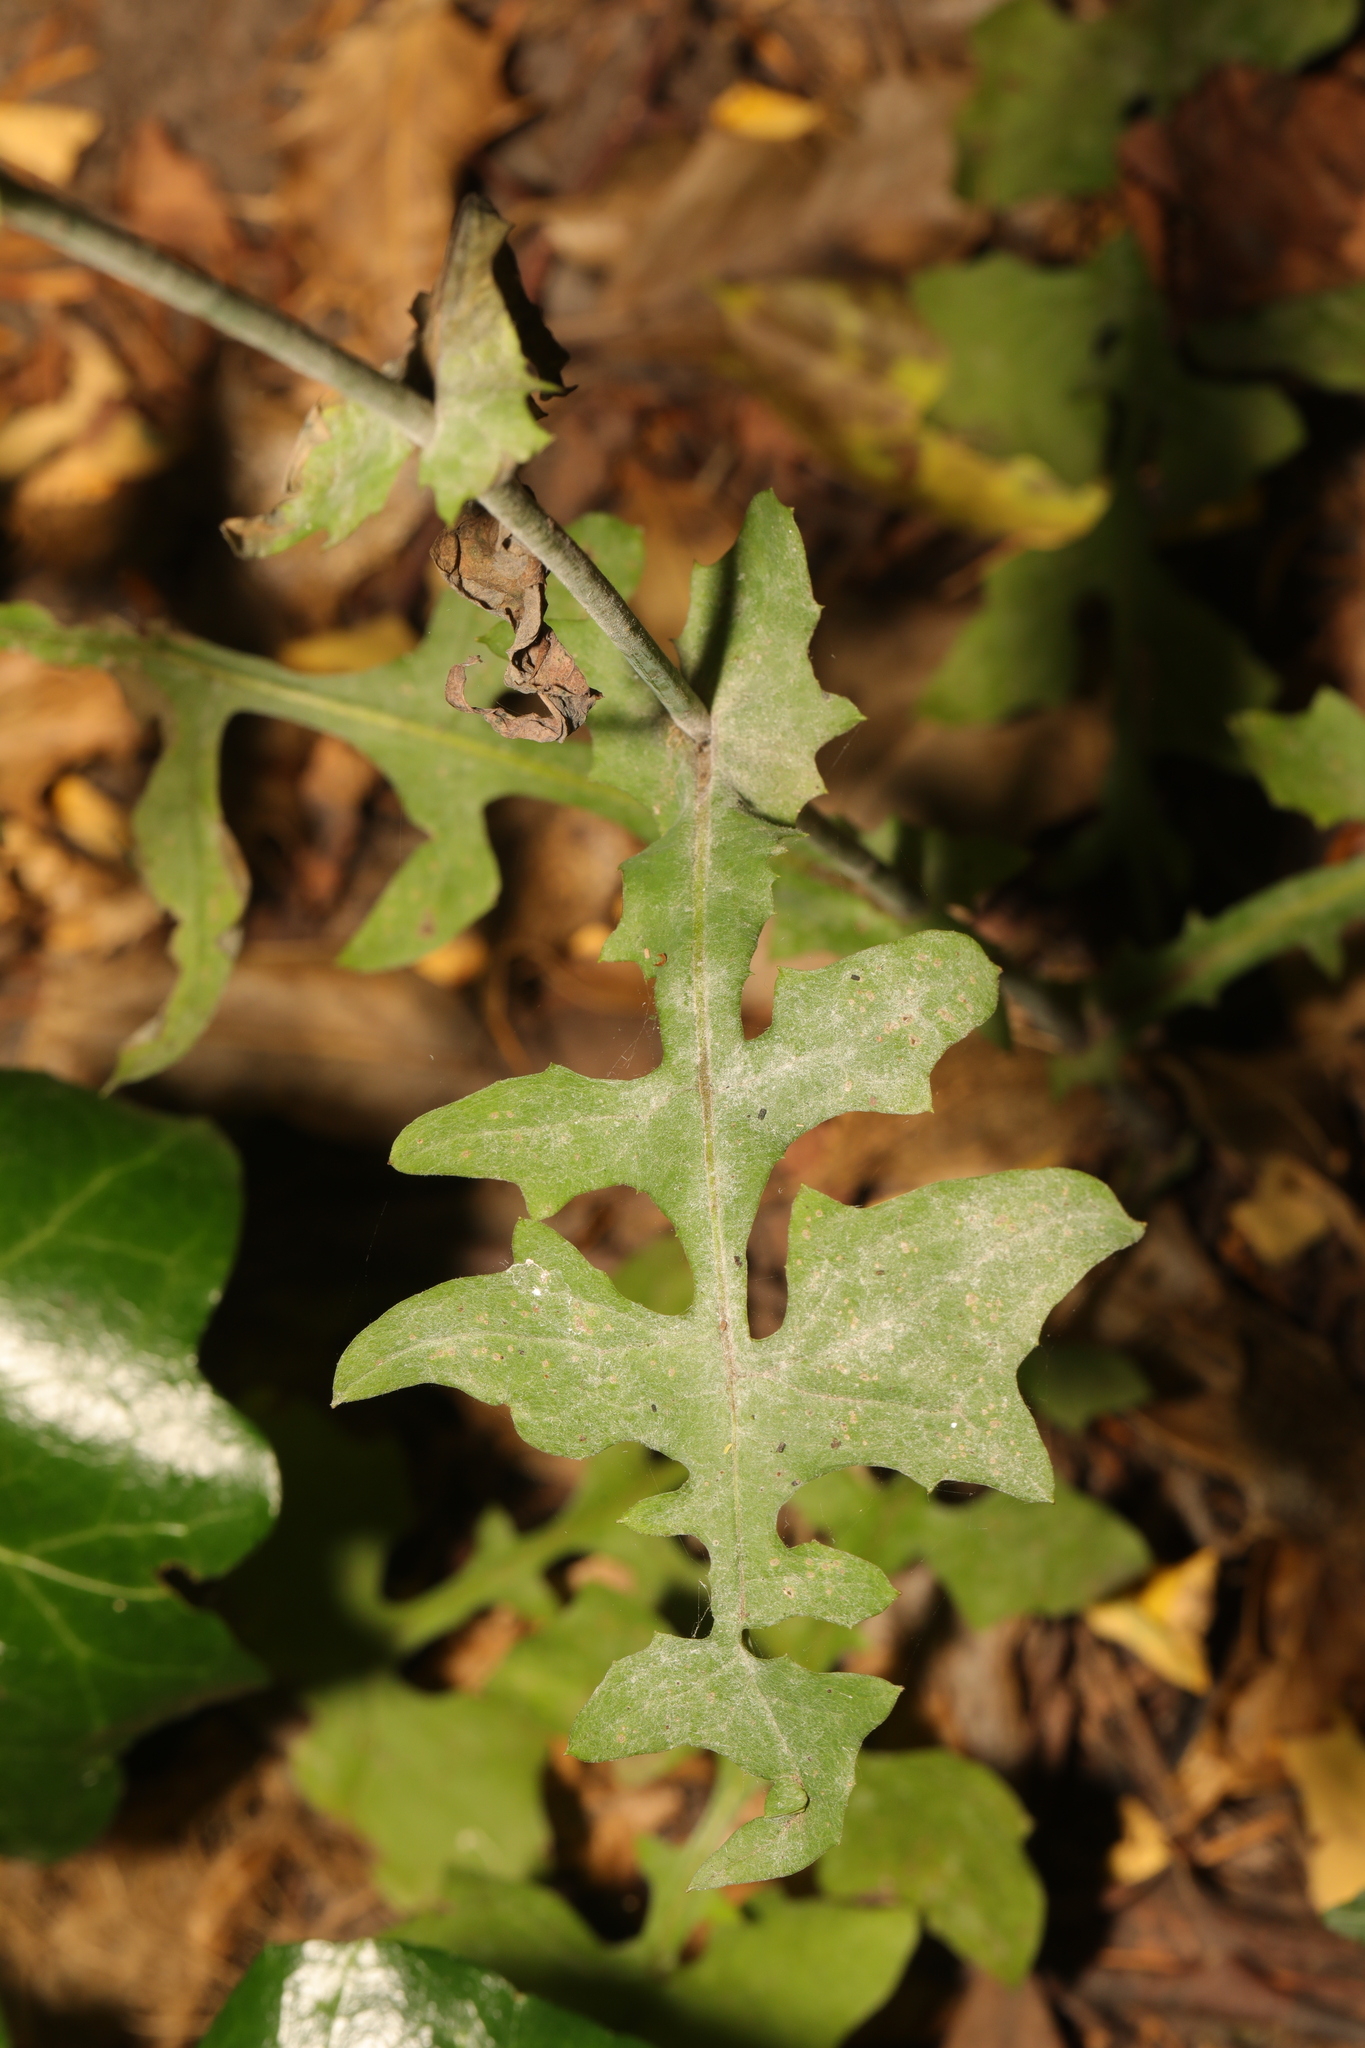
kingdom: Fungi
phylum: Ascomycota
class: Leotiomycetes
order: Helotiales
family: Erysiphaceae
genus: Golovinomyces
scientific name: Golovinomyces bolayi
